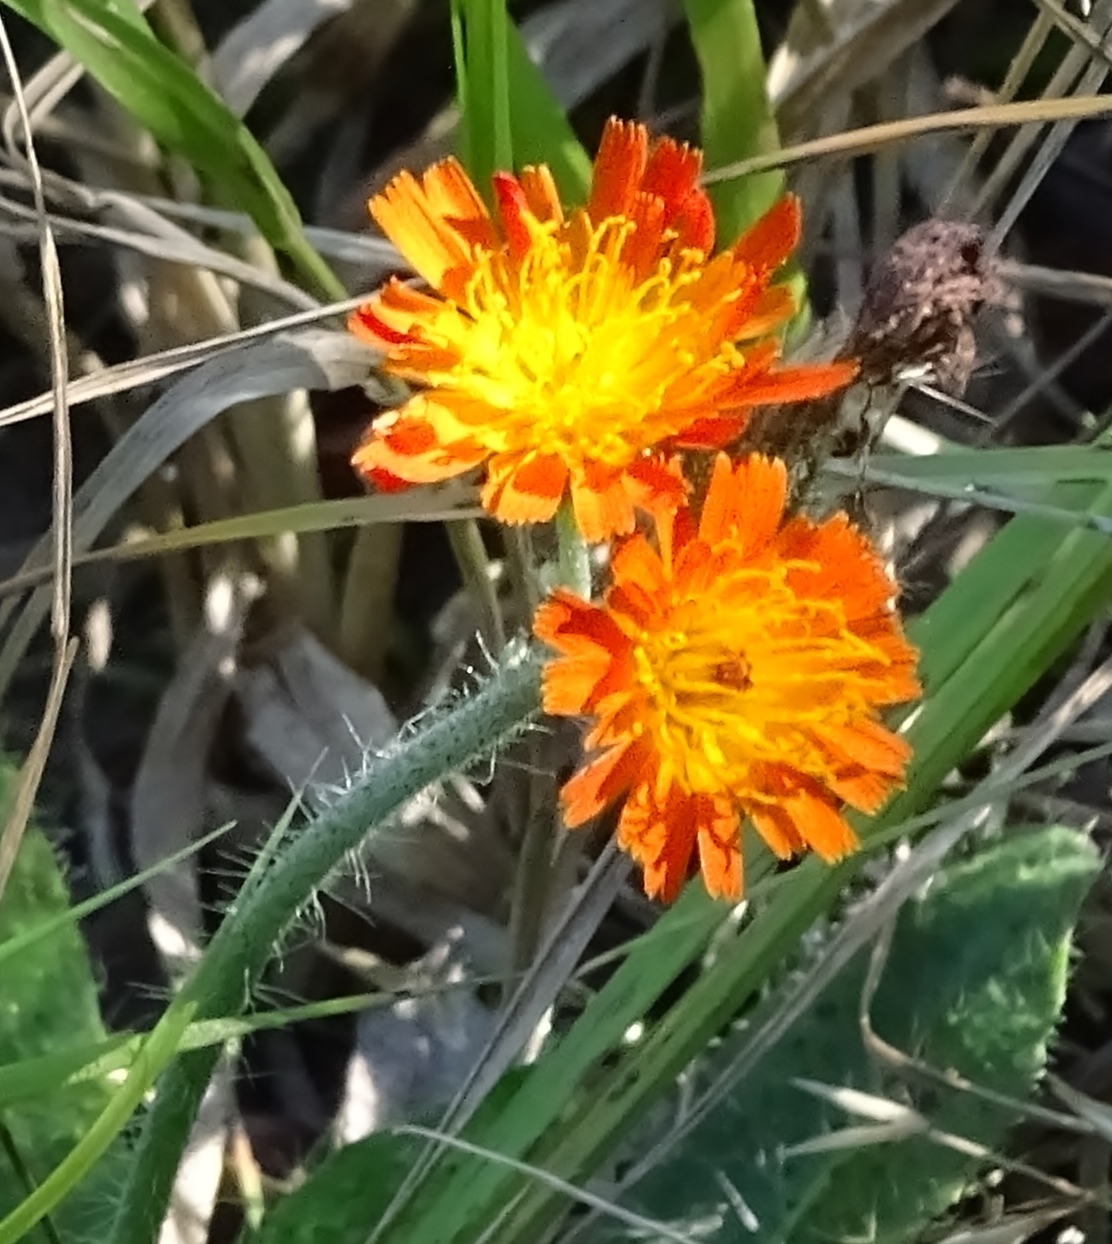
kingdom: Plantae
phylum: Tracheophyta
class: Magnoliopsida
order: Asterales
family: Asteraceae
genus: Pilosella
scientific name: Pilosella aurantiaca
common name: Fox-and-cubs
